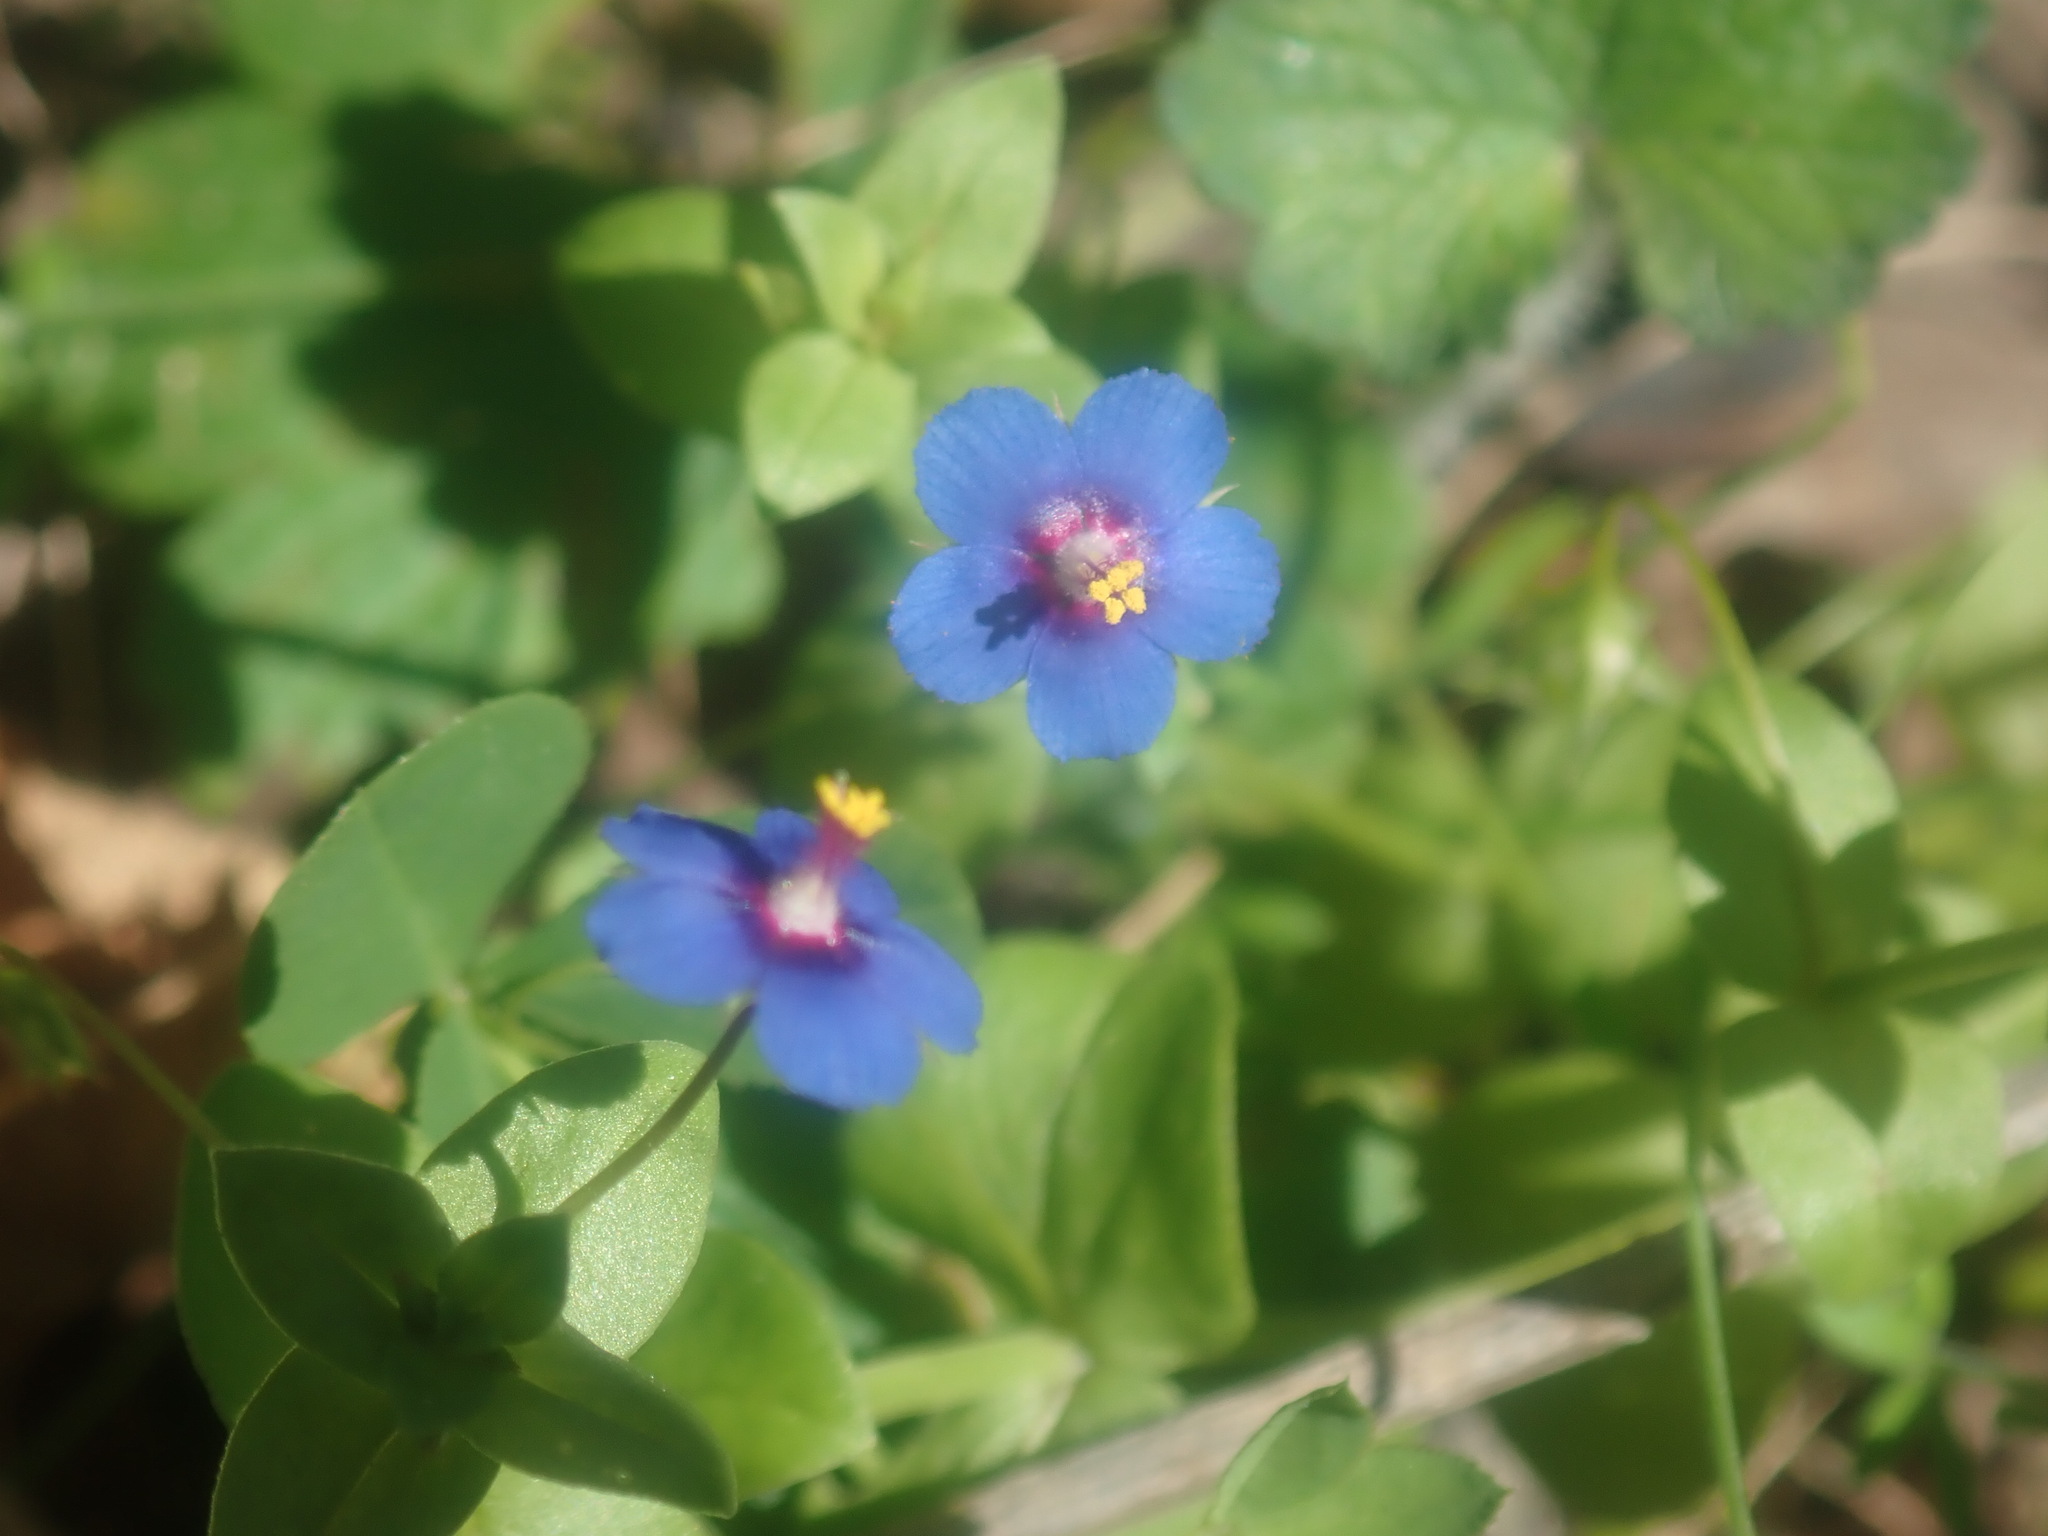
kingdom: Plantae
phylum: Tracheophyta
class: Magnoliopsida
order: Ericales
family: Primulaceae
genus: Lysimachia
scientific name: Lysimachia loeflingii
